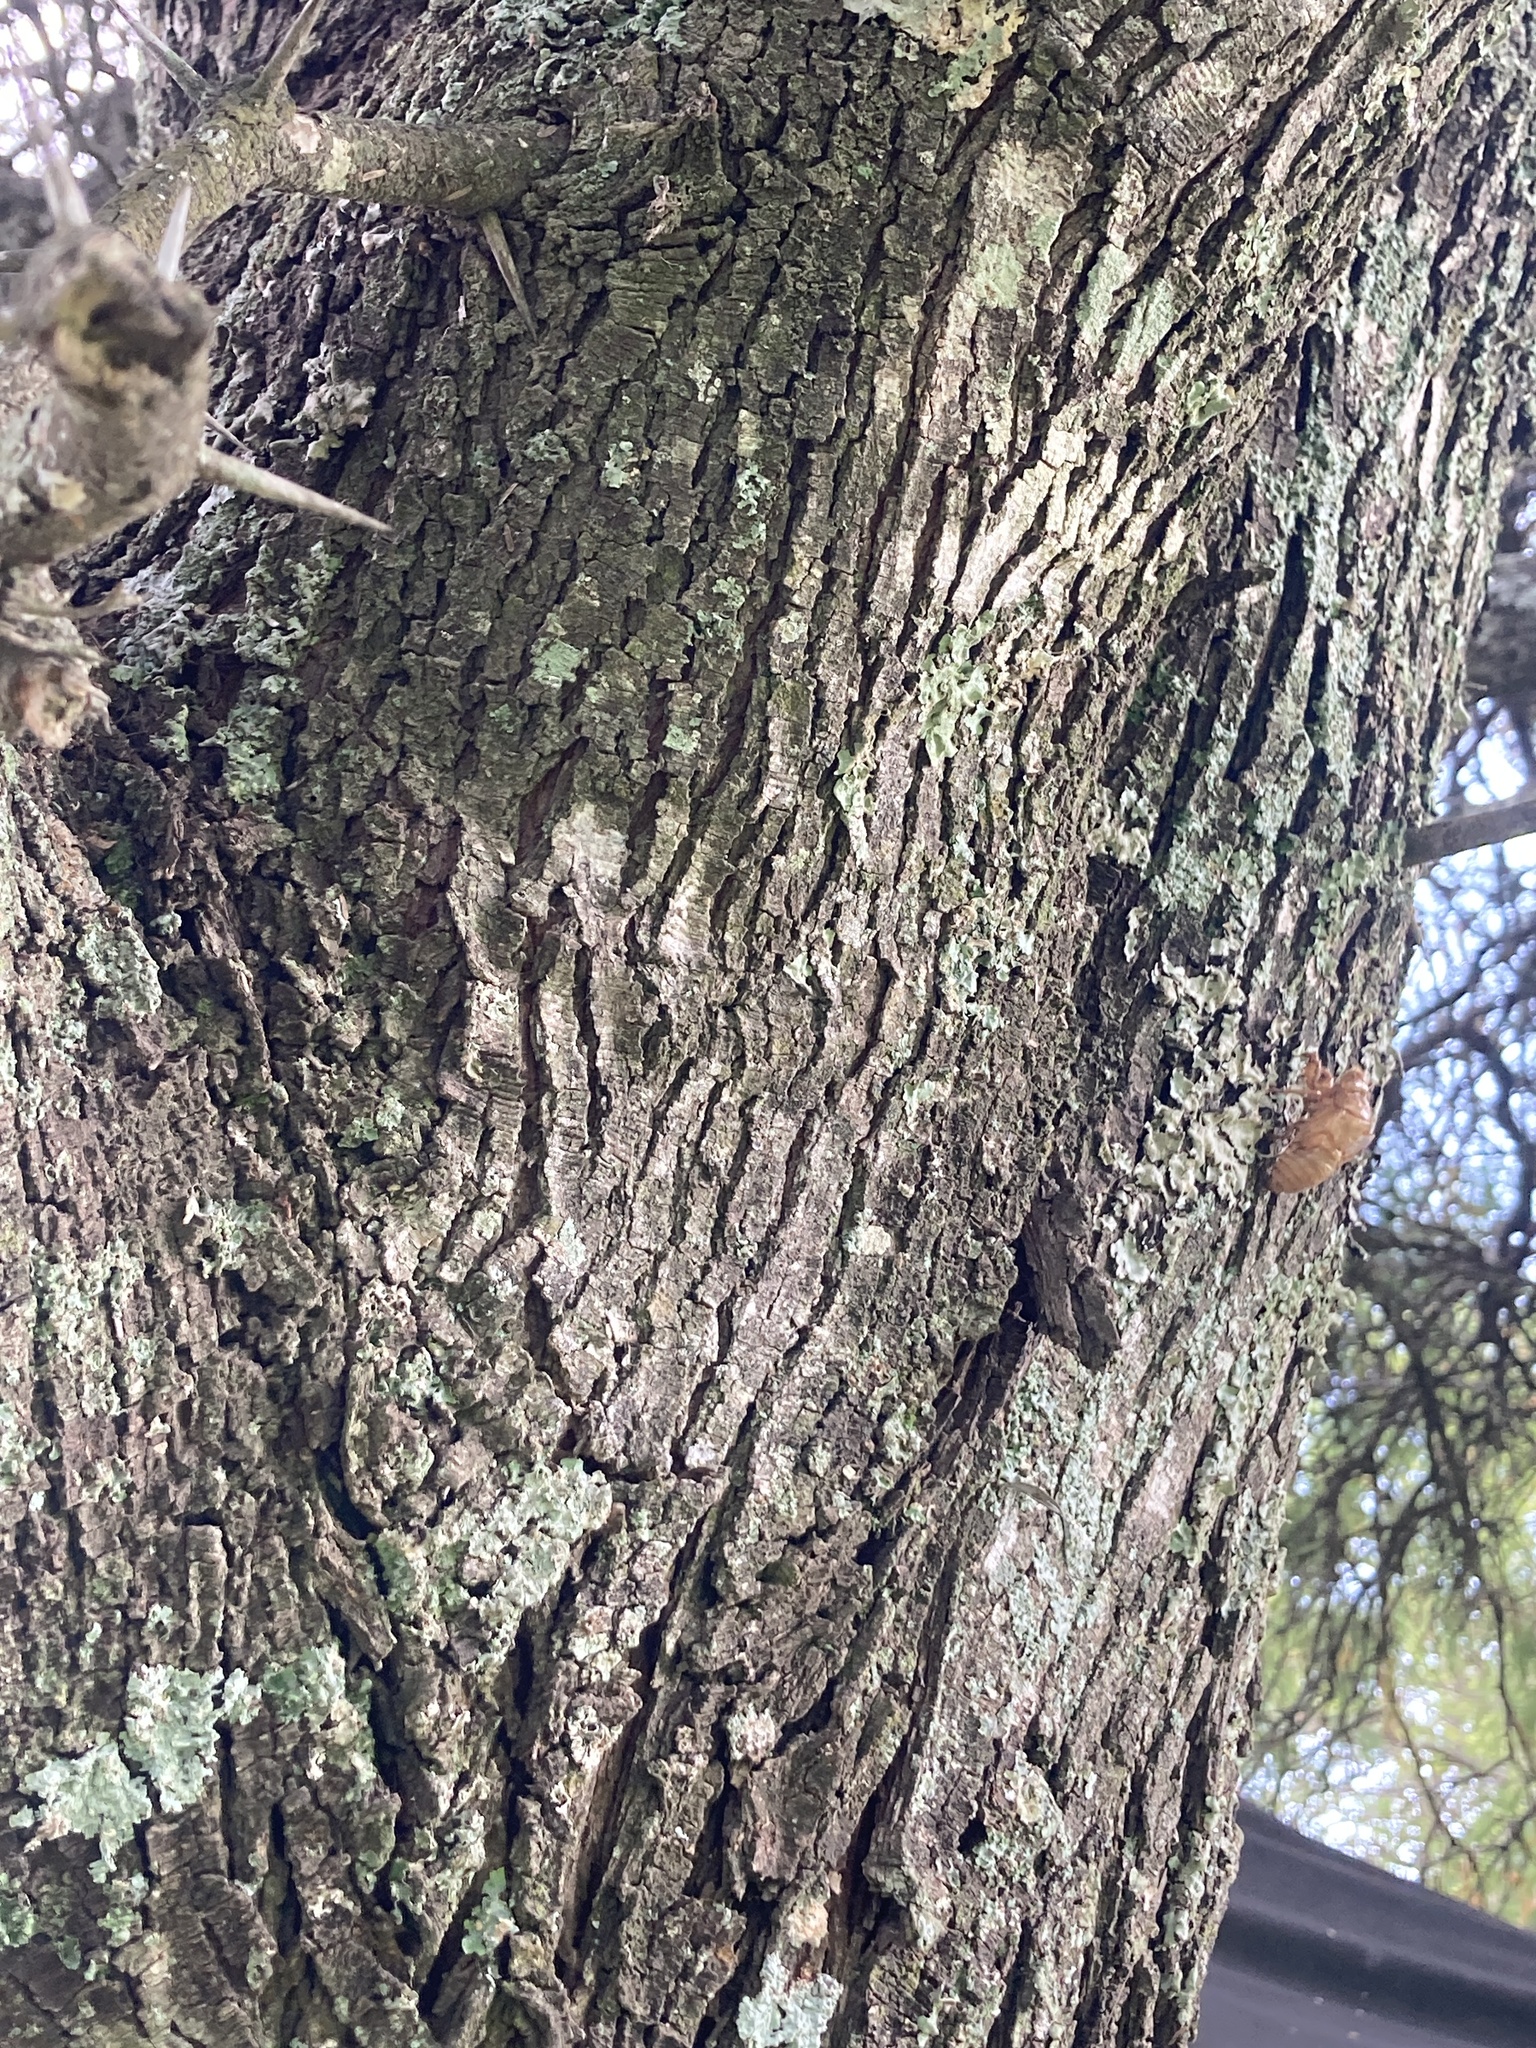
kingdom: Plantae
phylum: Tracheophyta
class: Magnoliopsida
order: Fabales
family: Fabaceae
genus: Prosopis
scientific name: Prosopis nigra
